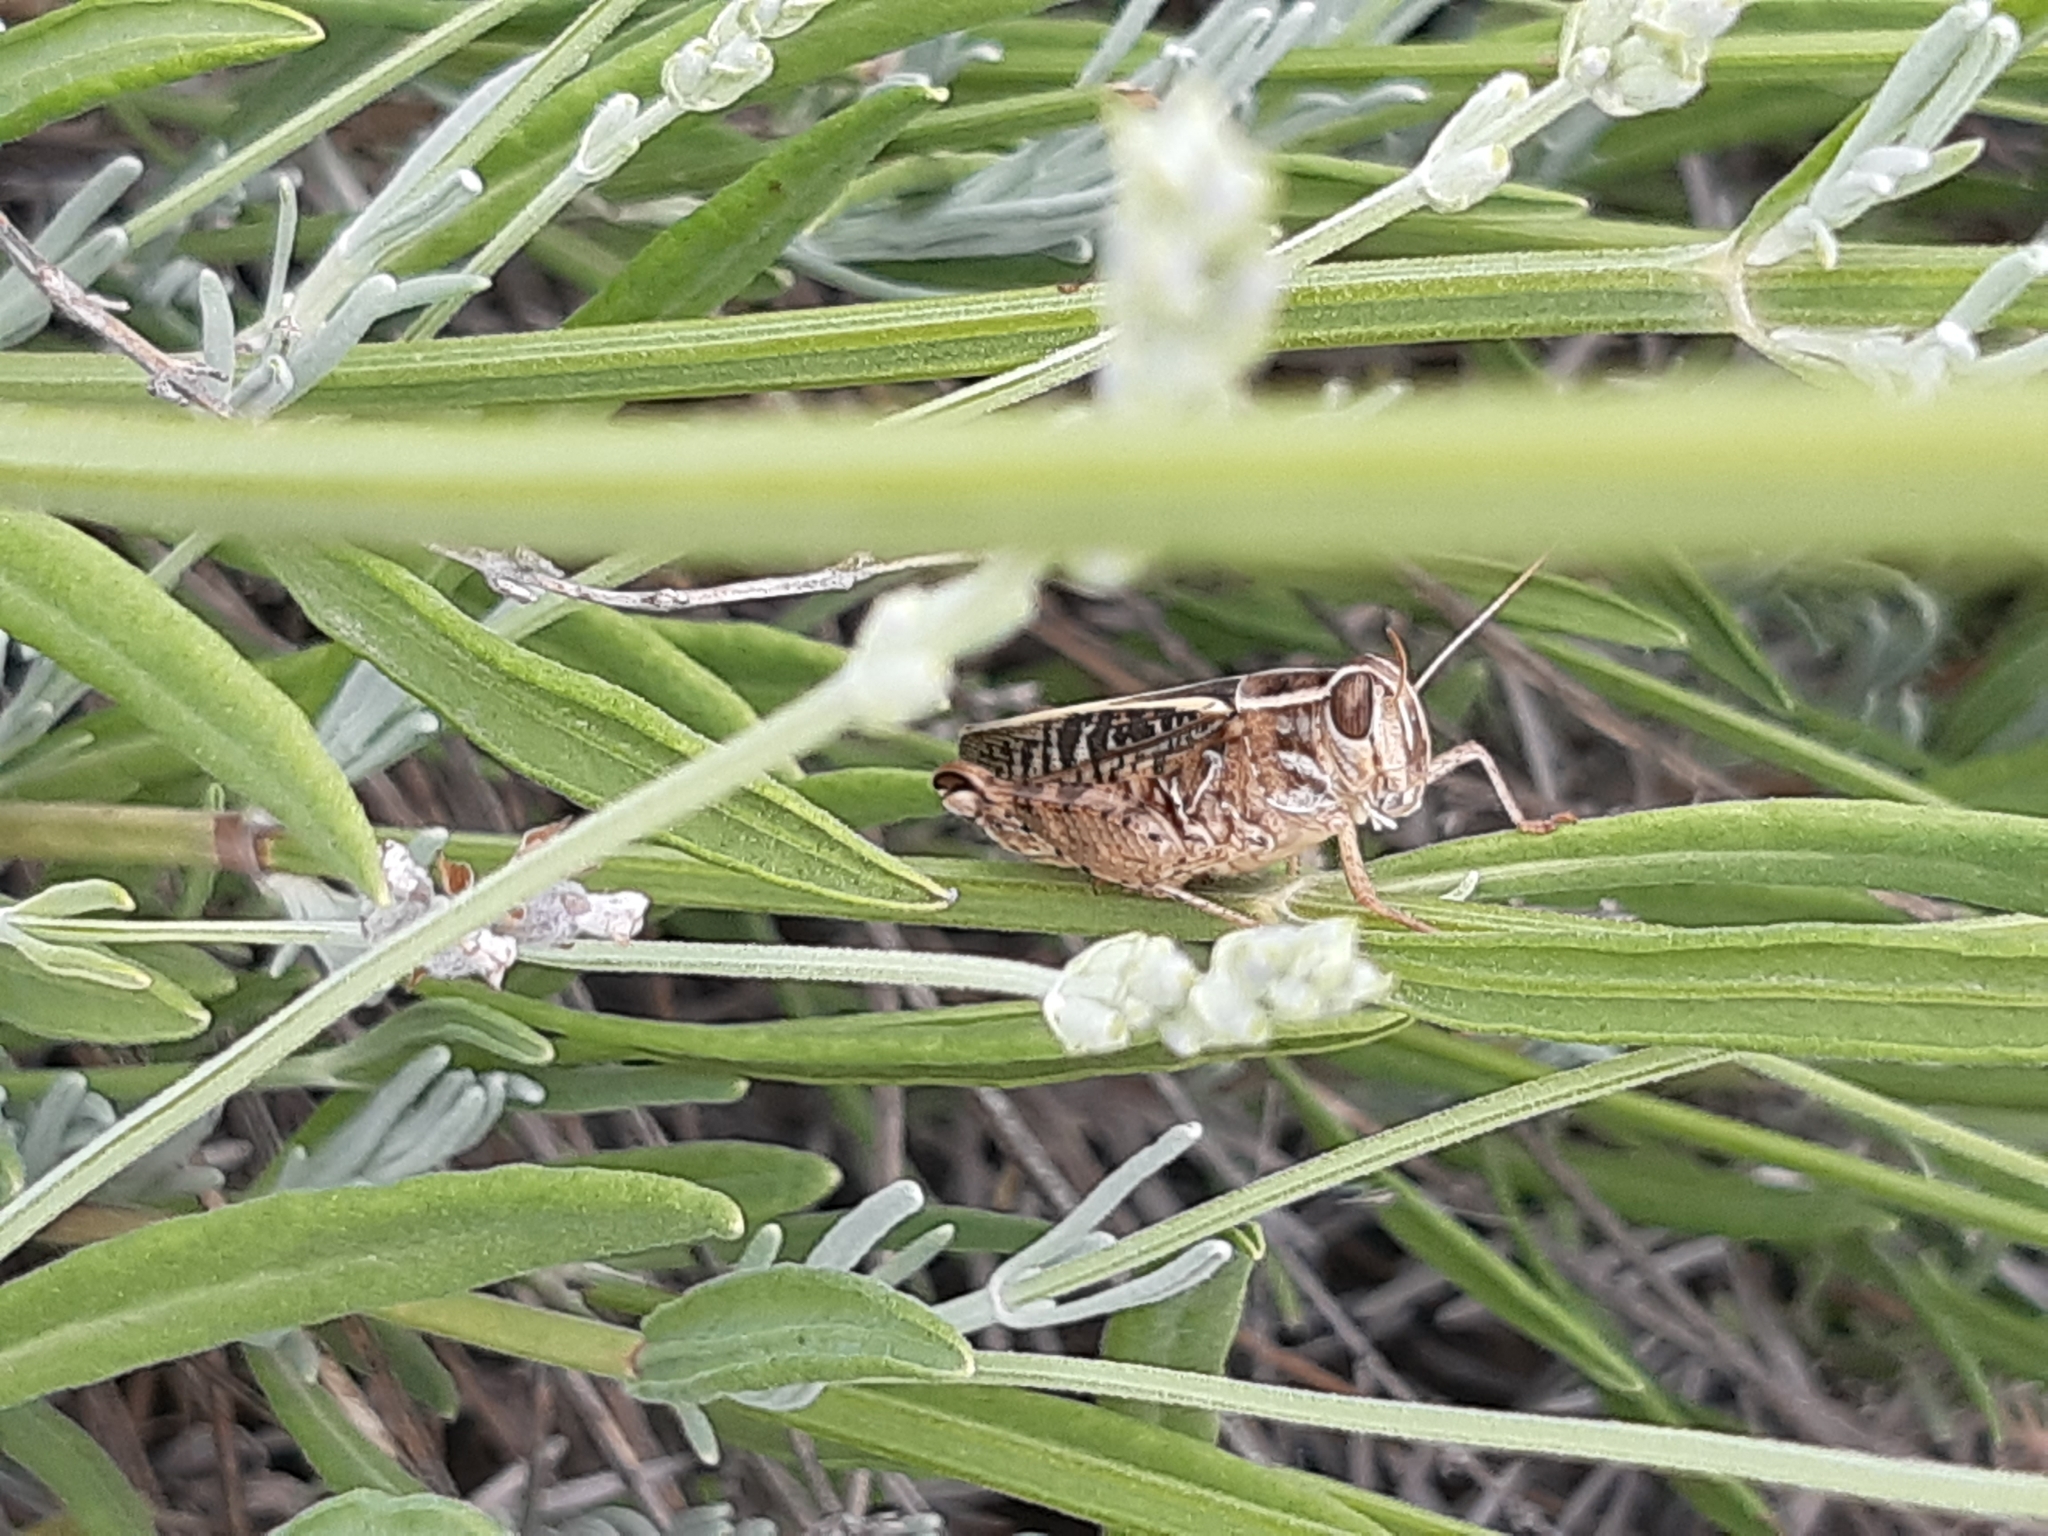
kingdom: Animalia
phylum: Arthropoda
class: Insecta
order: Orthoptera
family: Acrididae
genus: Calliptamus
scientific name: Calliptamus italicus
